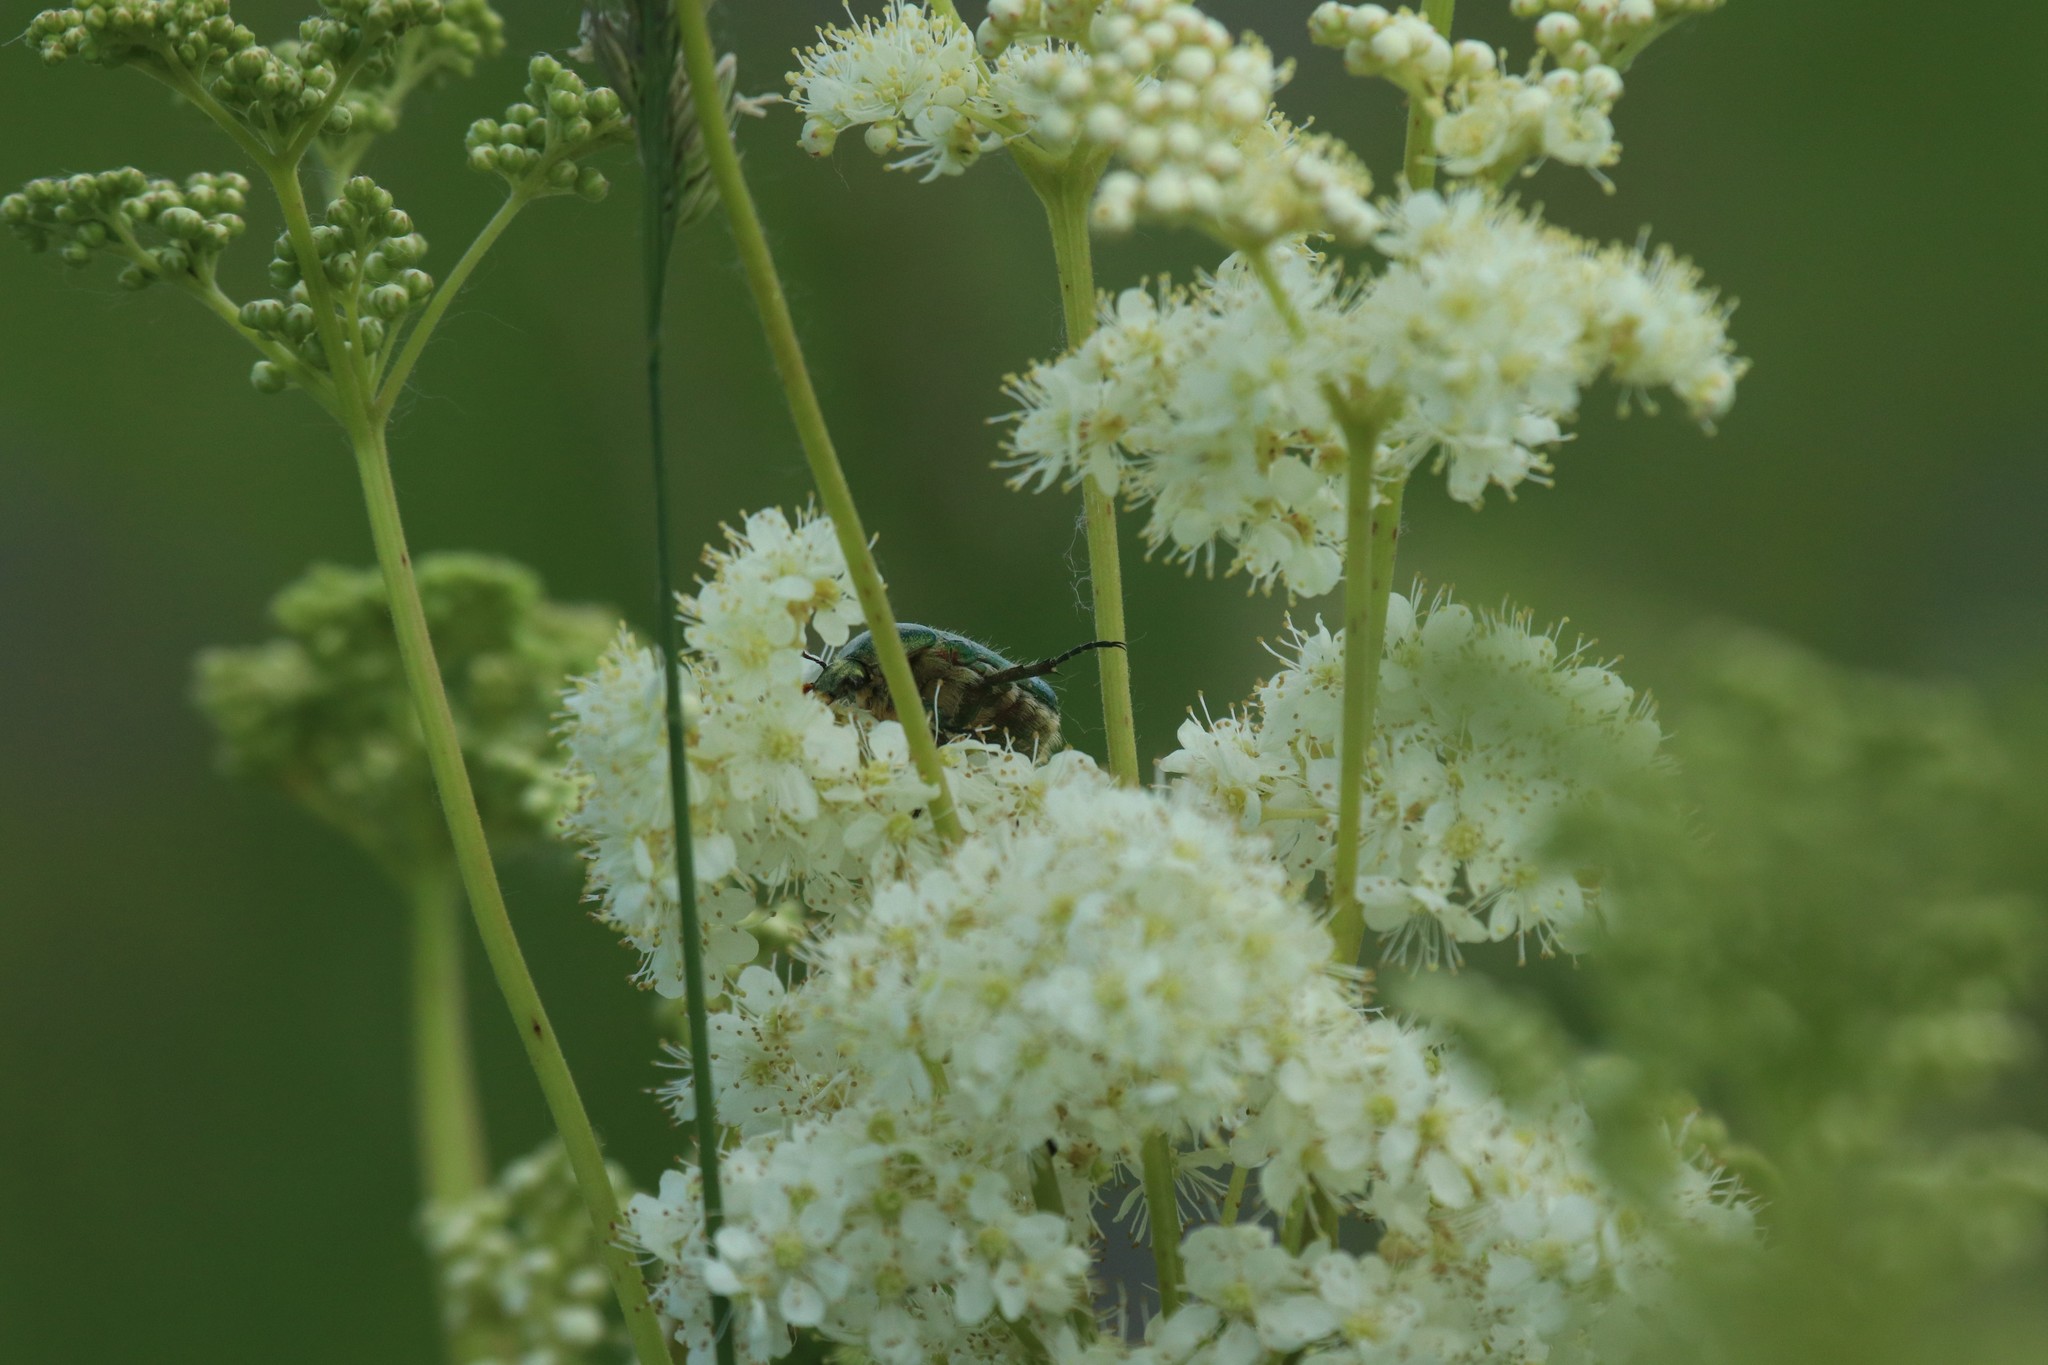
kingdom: Plantae
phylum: Tracheophyta
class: Magnoliopsida
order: Rosales
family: Rosaceae
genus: Filipendula
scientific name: Filipendula ulmaria
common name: Meadowsweet
